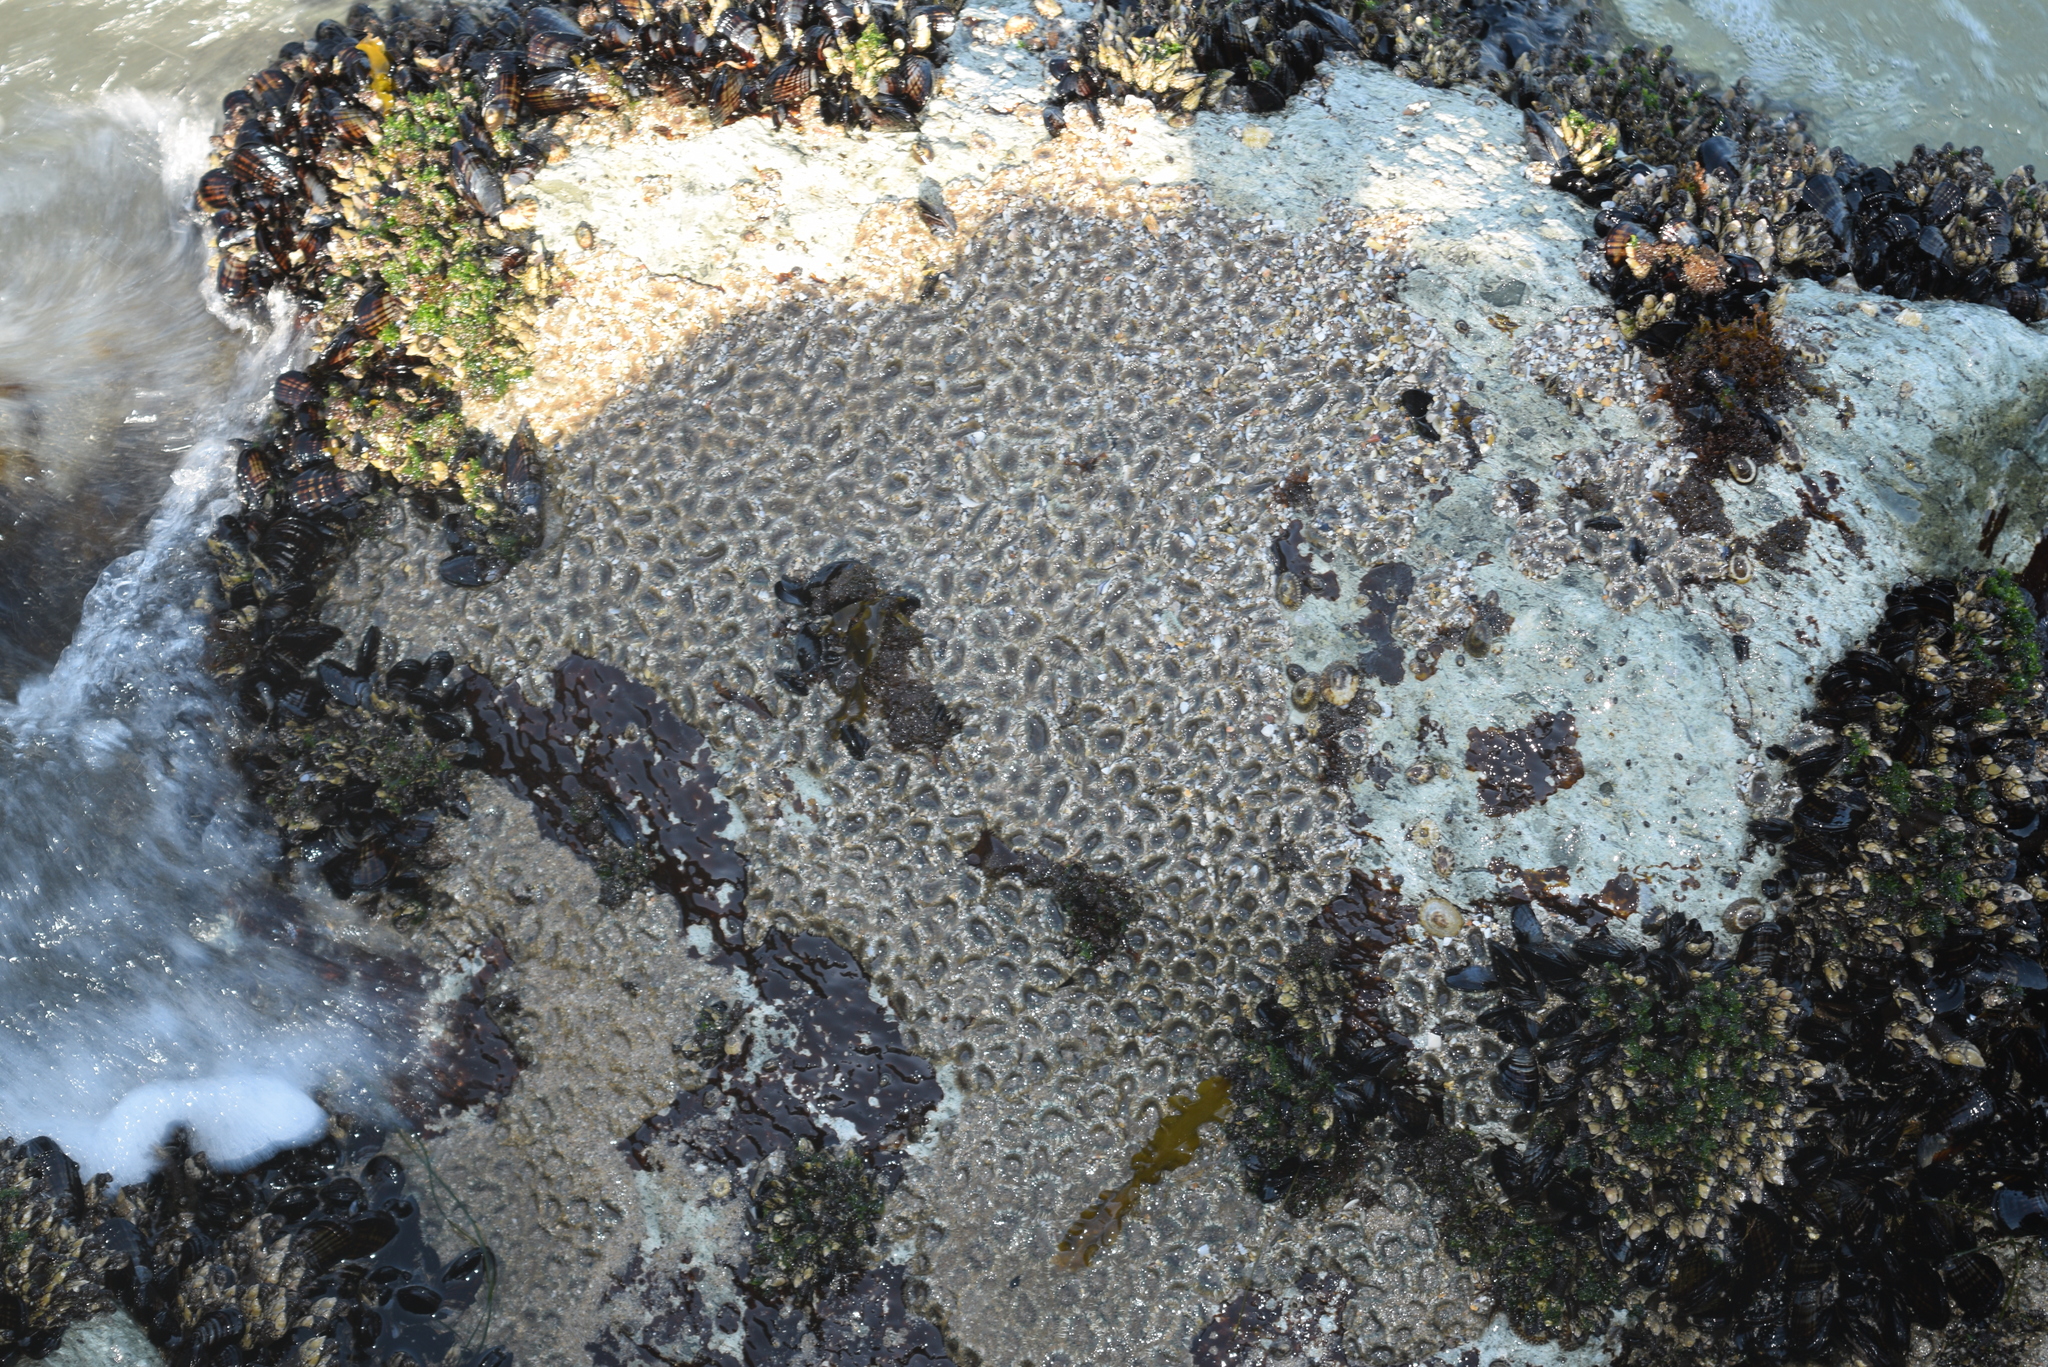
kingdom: Animalia
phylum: Cnidaria
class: Anthozoa
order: Actiniaria
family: Actiniidae
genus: Anthopleura
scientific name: Anthopleura elegantissima
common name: Clonal anemone
